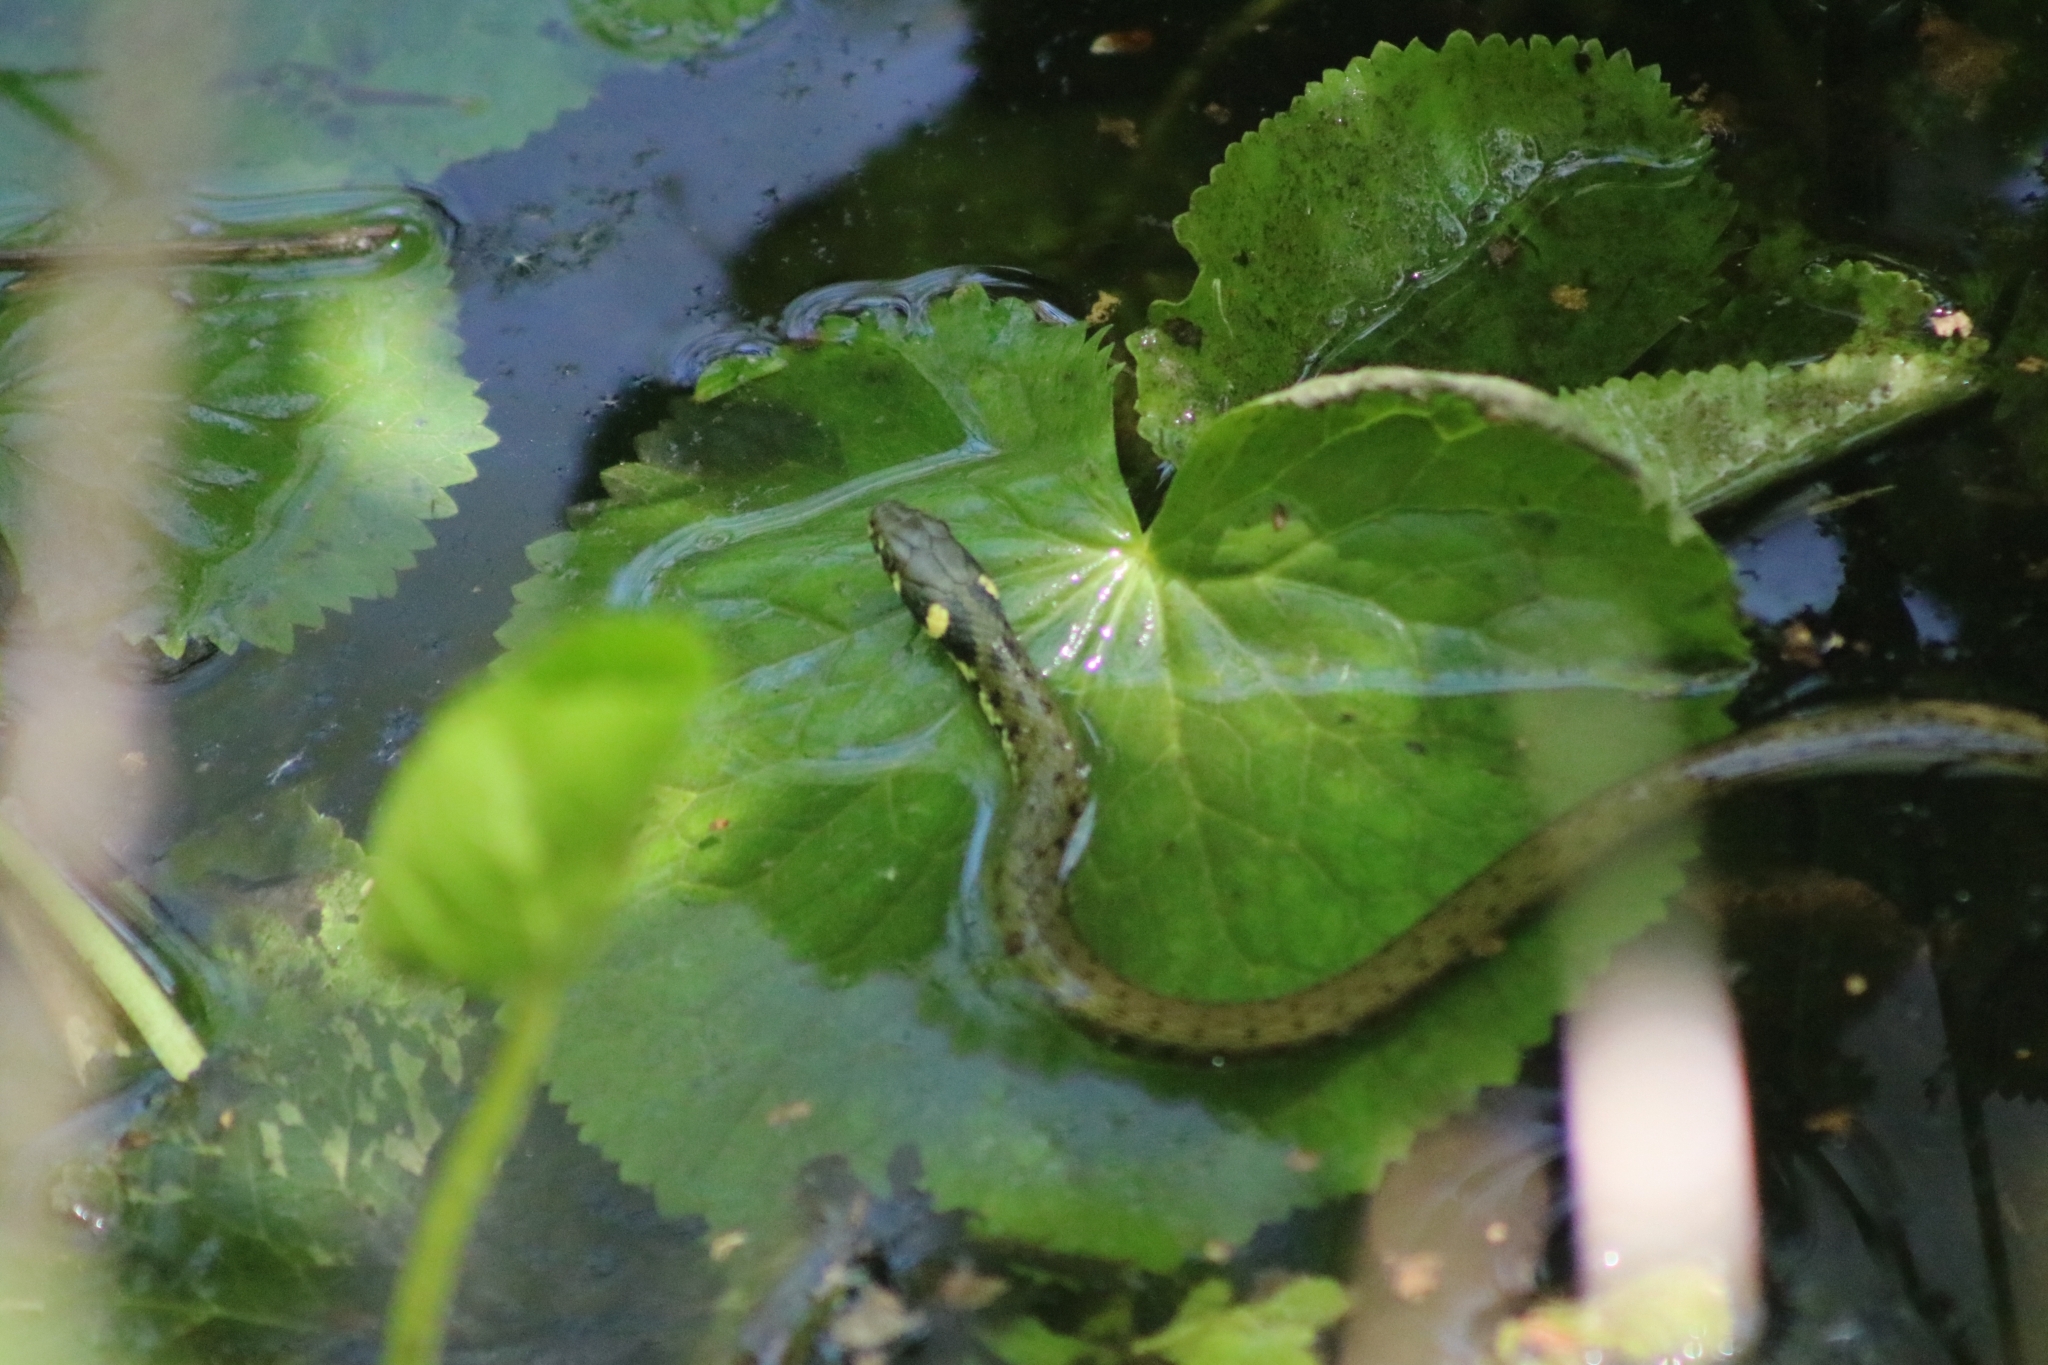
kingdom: Animalia
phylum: Chordata
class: Squamata
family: Colubridae
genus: Natrix
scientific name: Natrix natrix
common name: Grass snake
